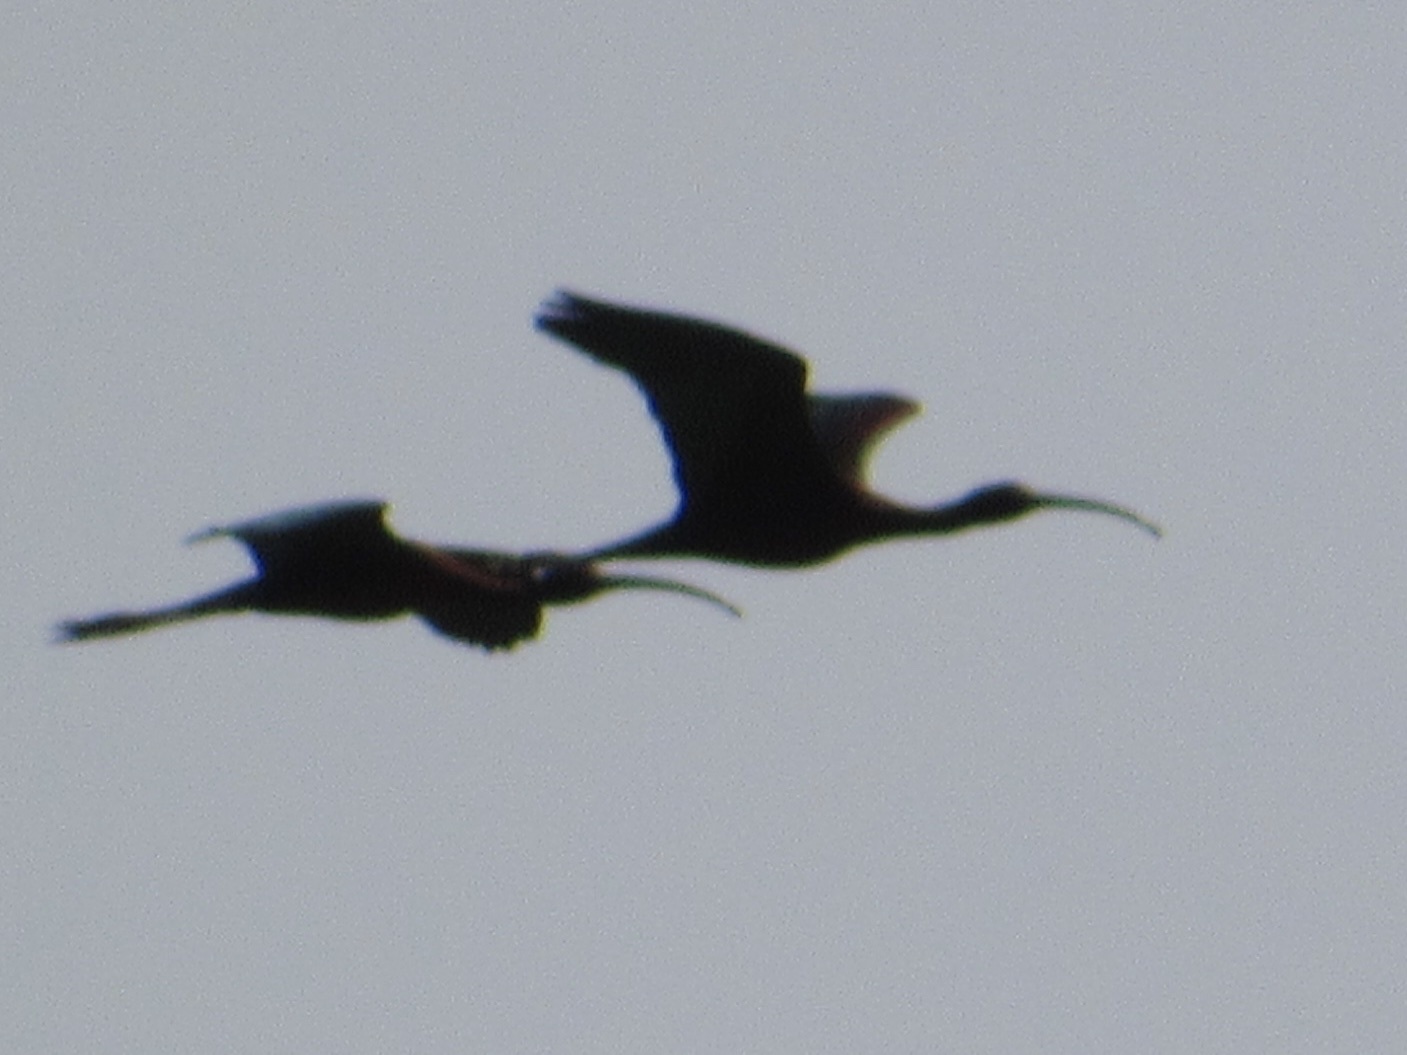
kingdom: Animalia
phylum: Chordata
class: Aves
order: Pelecaniformes
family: Threskiornithidae
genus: Plegadis
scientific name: Plegadis chihi
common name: White-faced ibis
